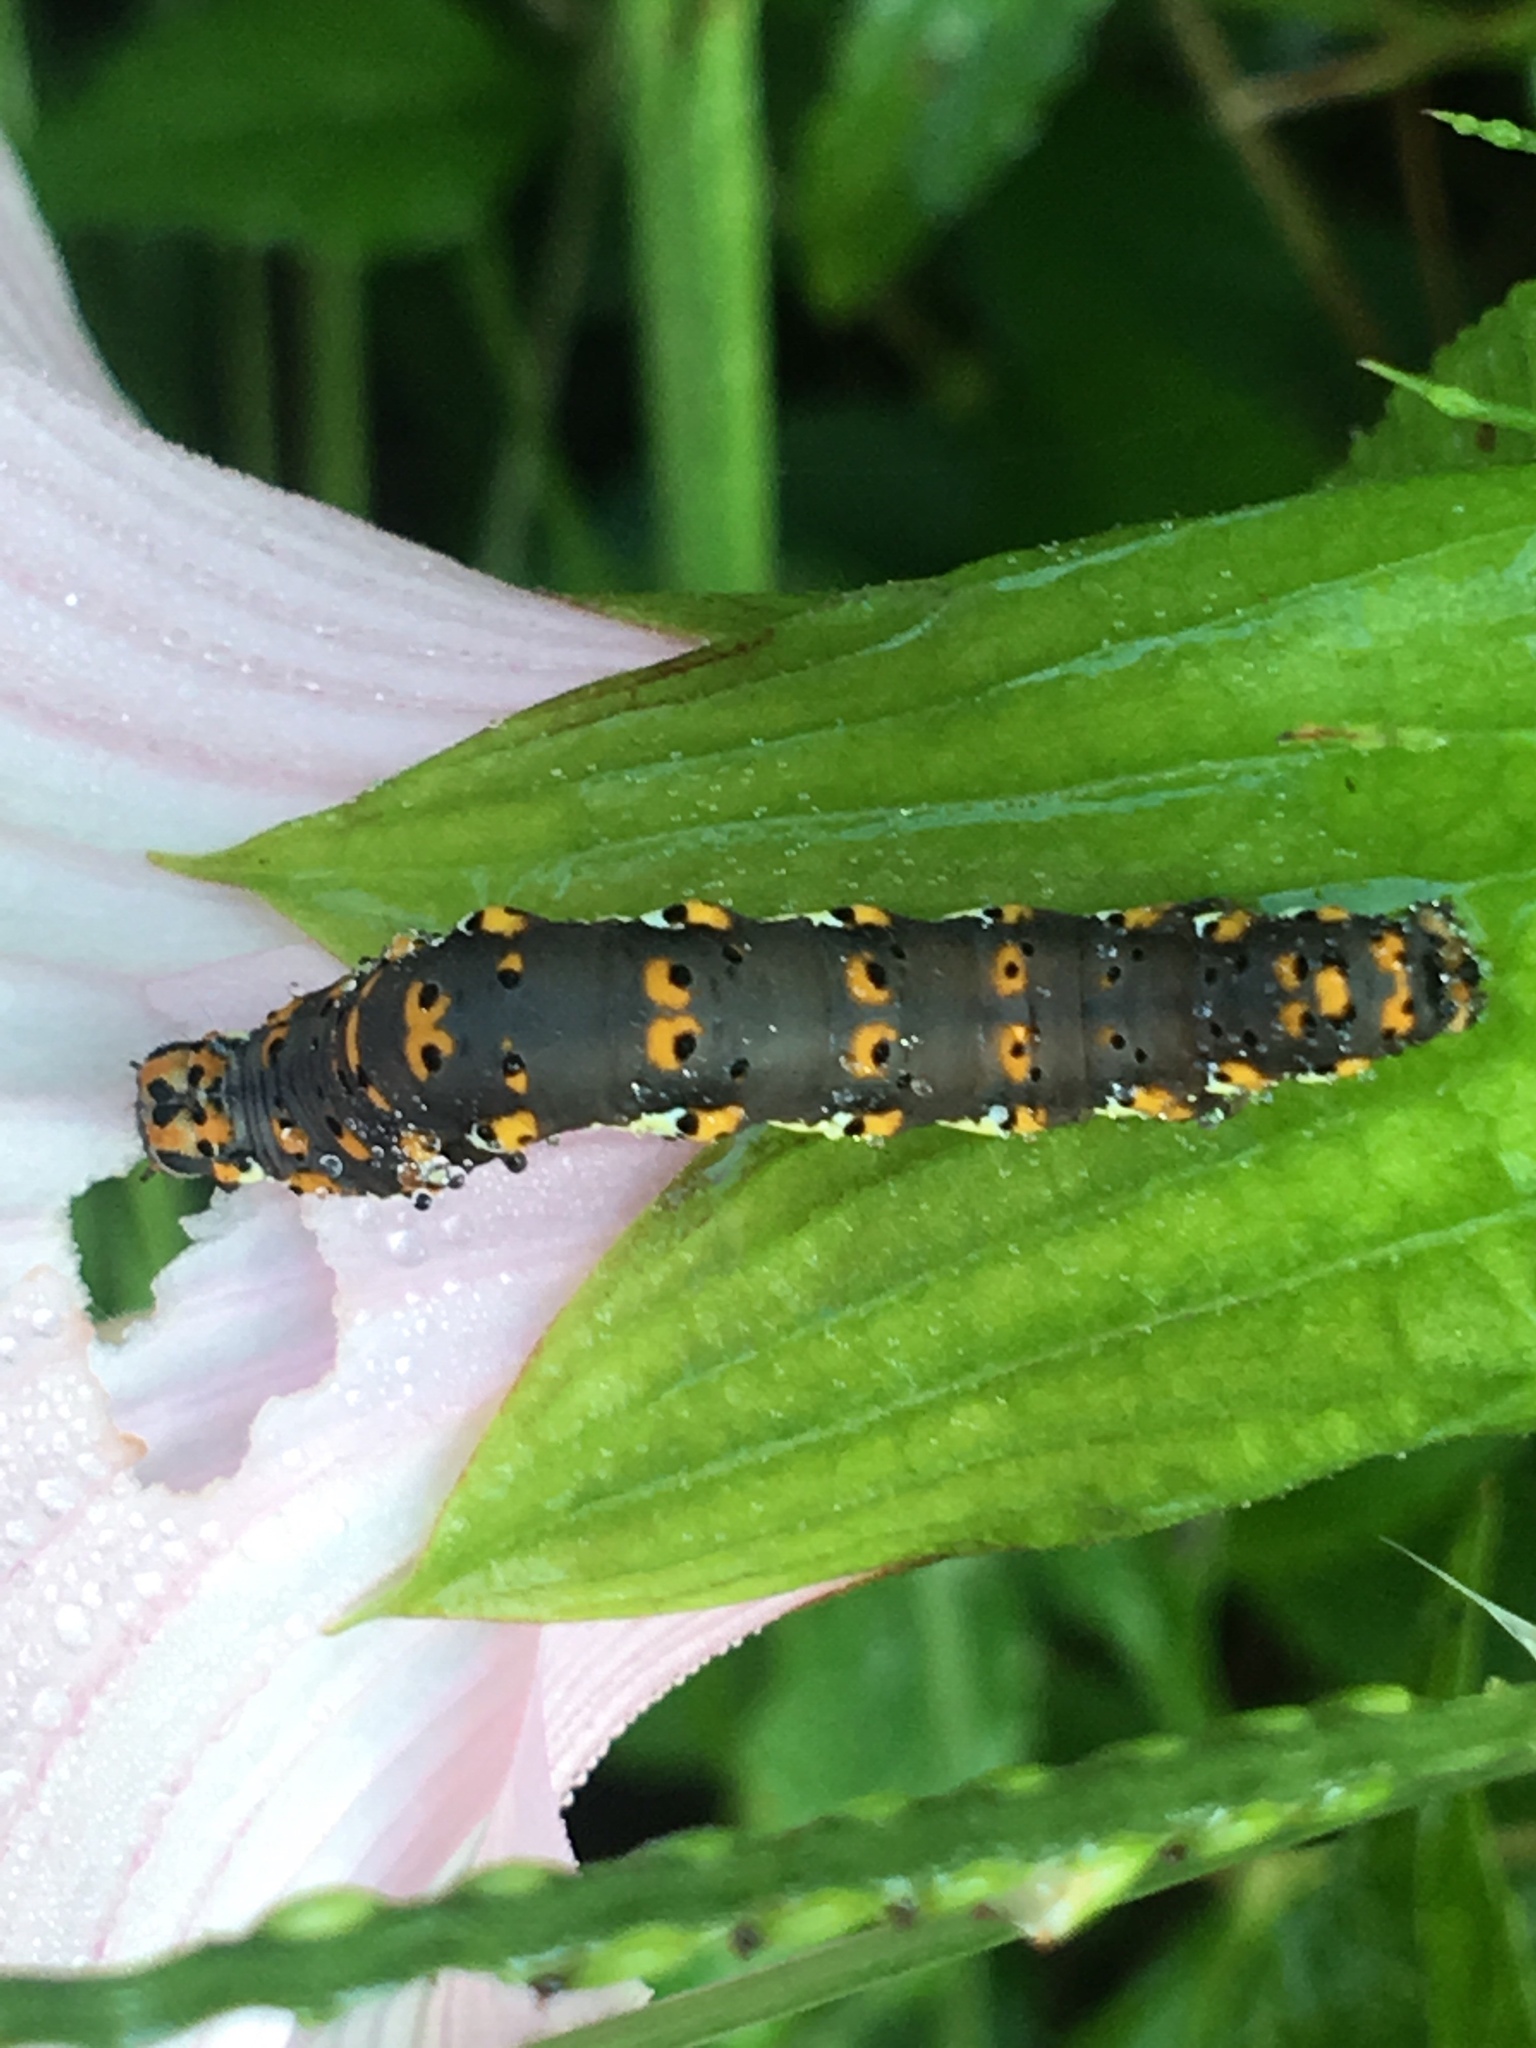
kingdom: Animalia
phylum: Arthropoda
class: Insecta
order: Lepidoptera
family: Noctuidae
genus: Acontia
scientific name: Acontia delecta
